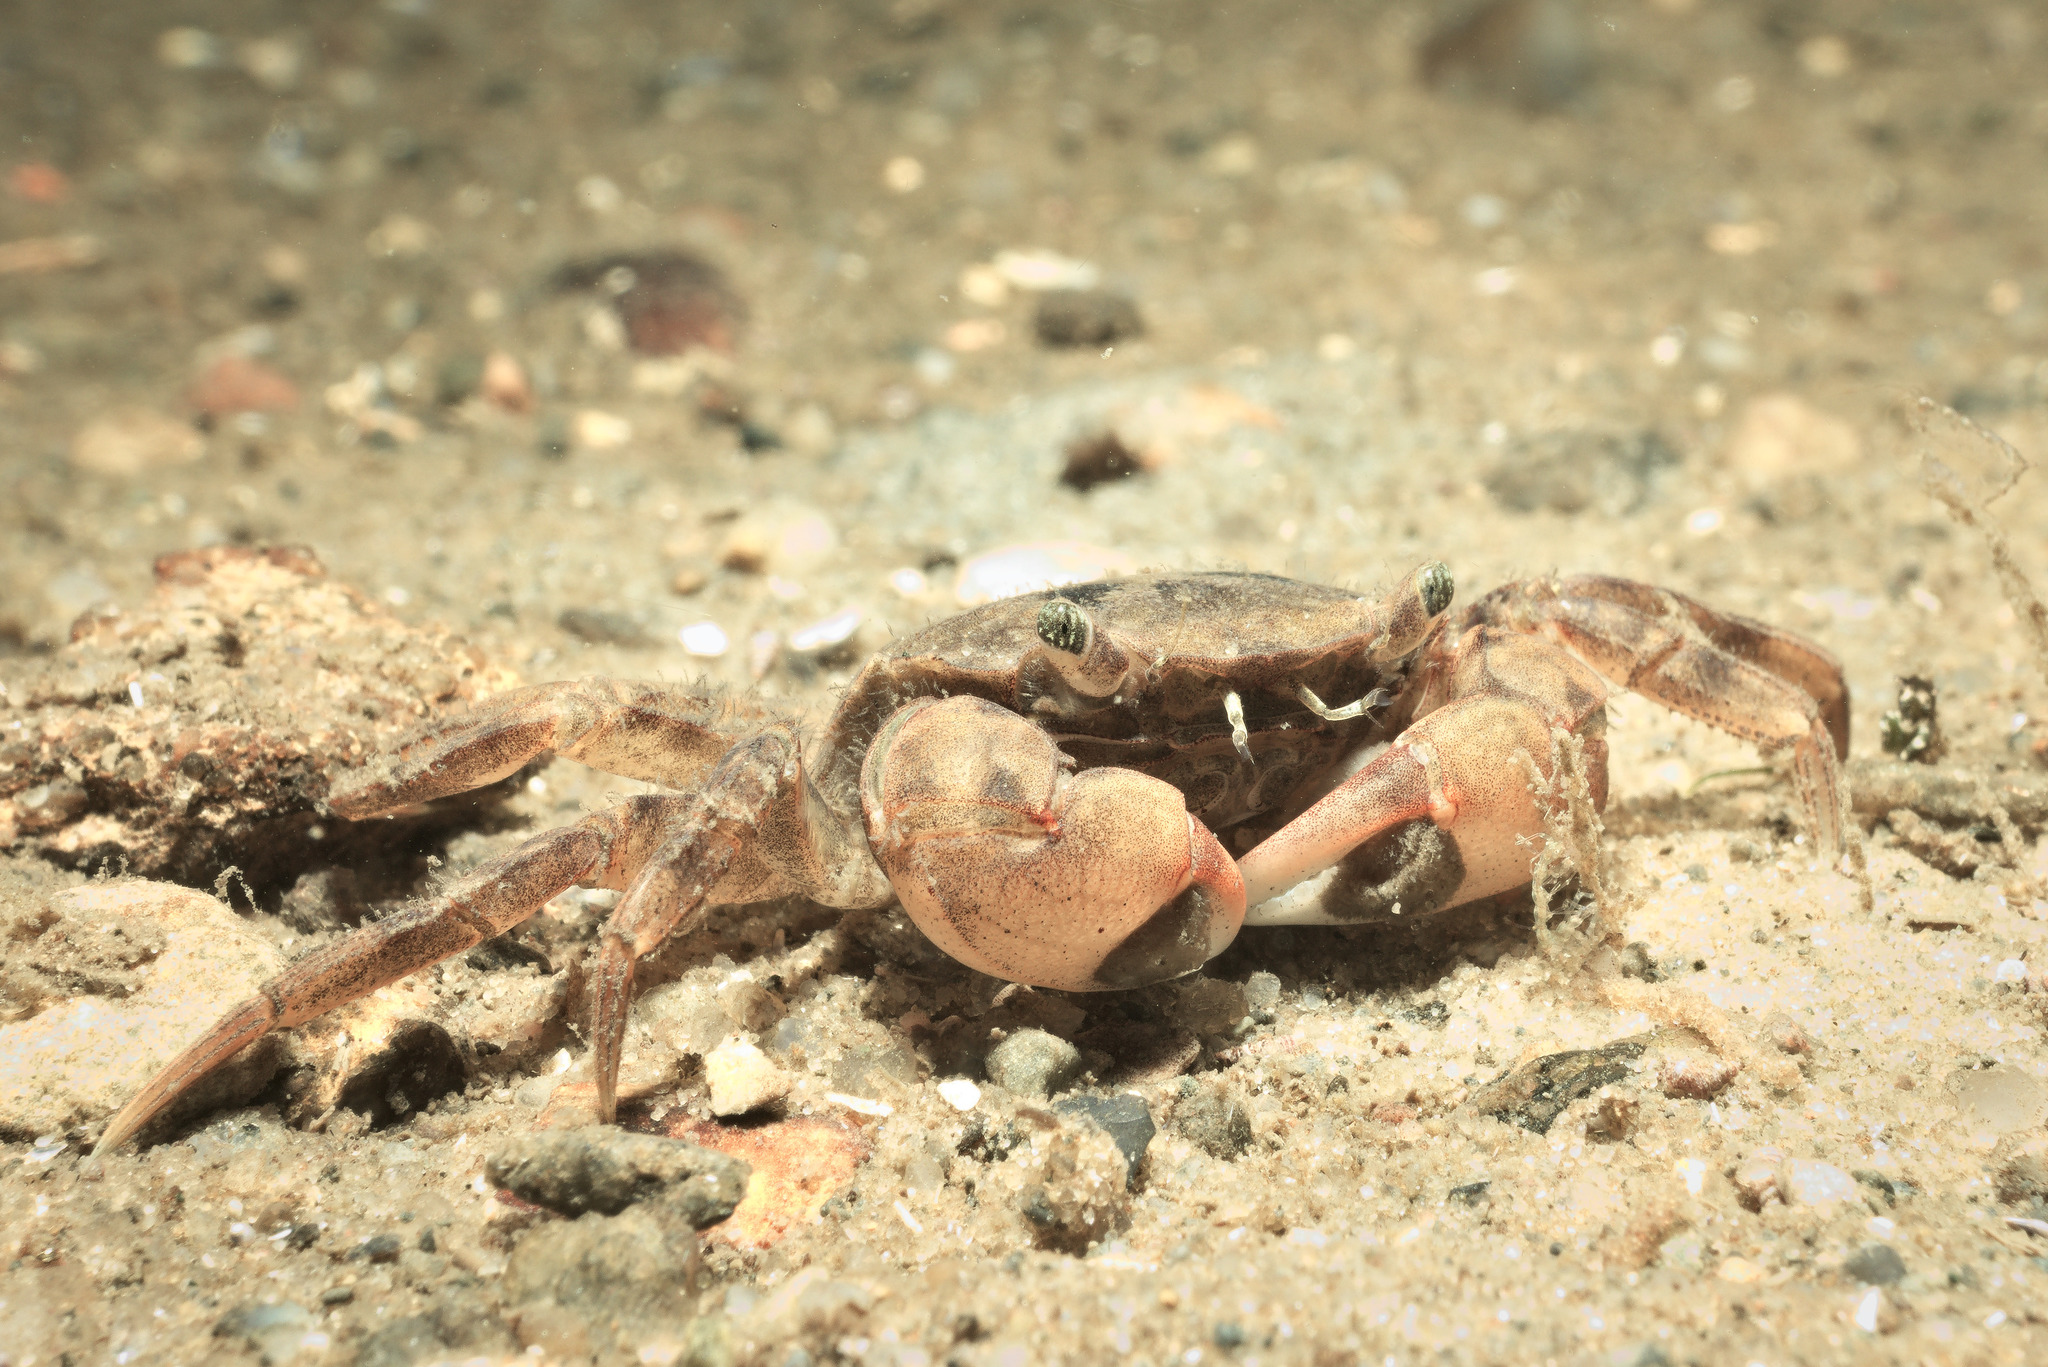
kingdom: Animalia
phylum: Arthropoda
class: Malacostraca
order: Decapoda
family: Varunidae
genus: Hemigrapsus
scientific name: Hemigrapsus takanoi
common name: Asian brush crab
